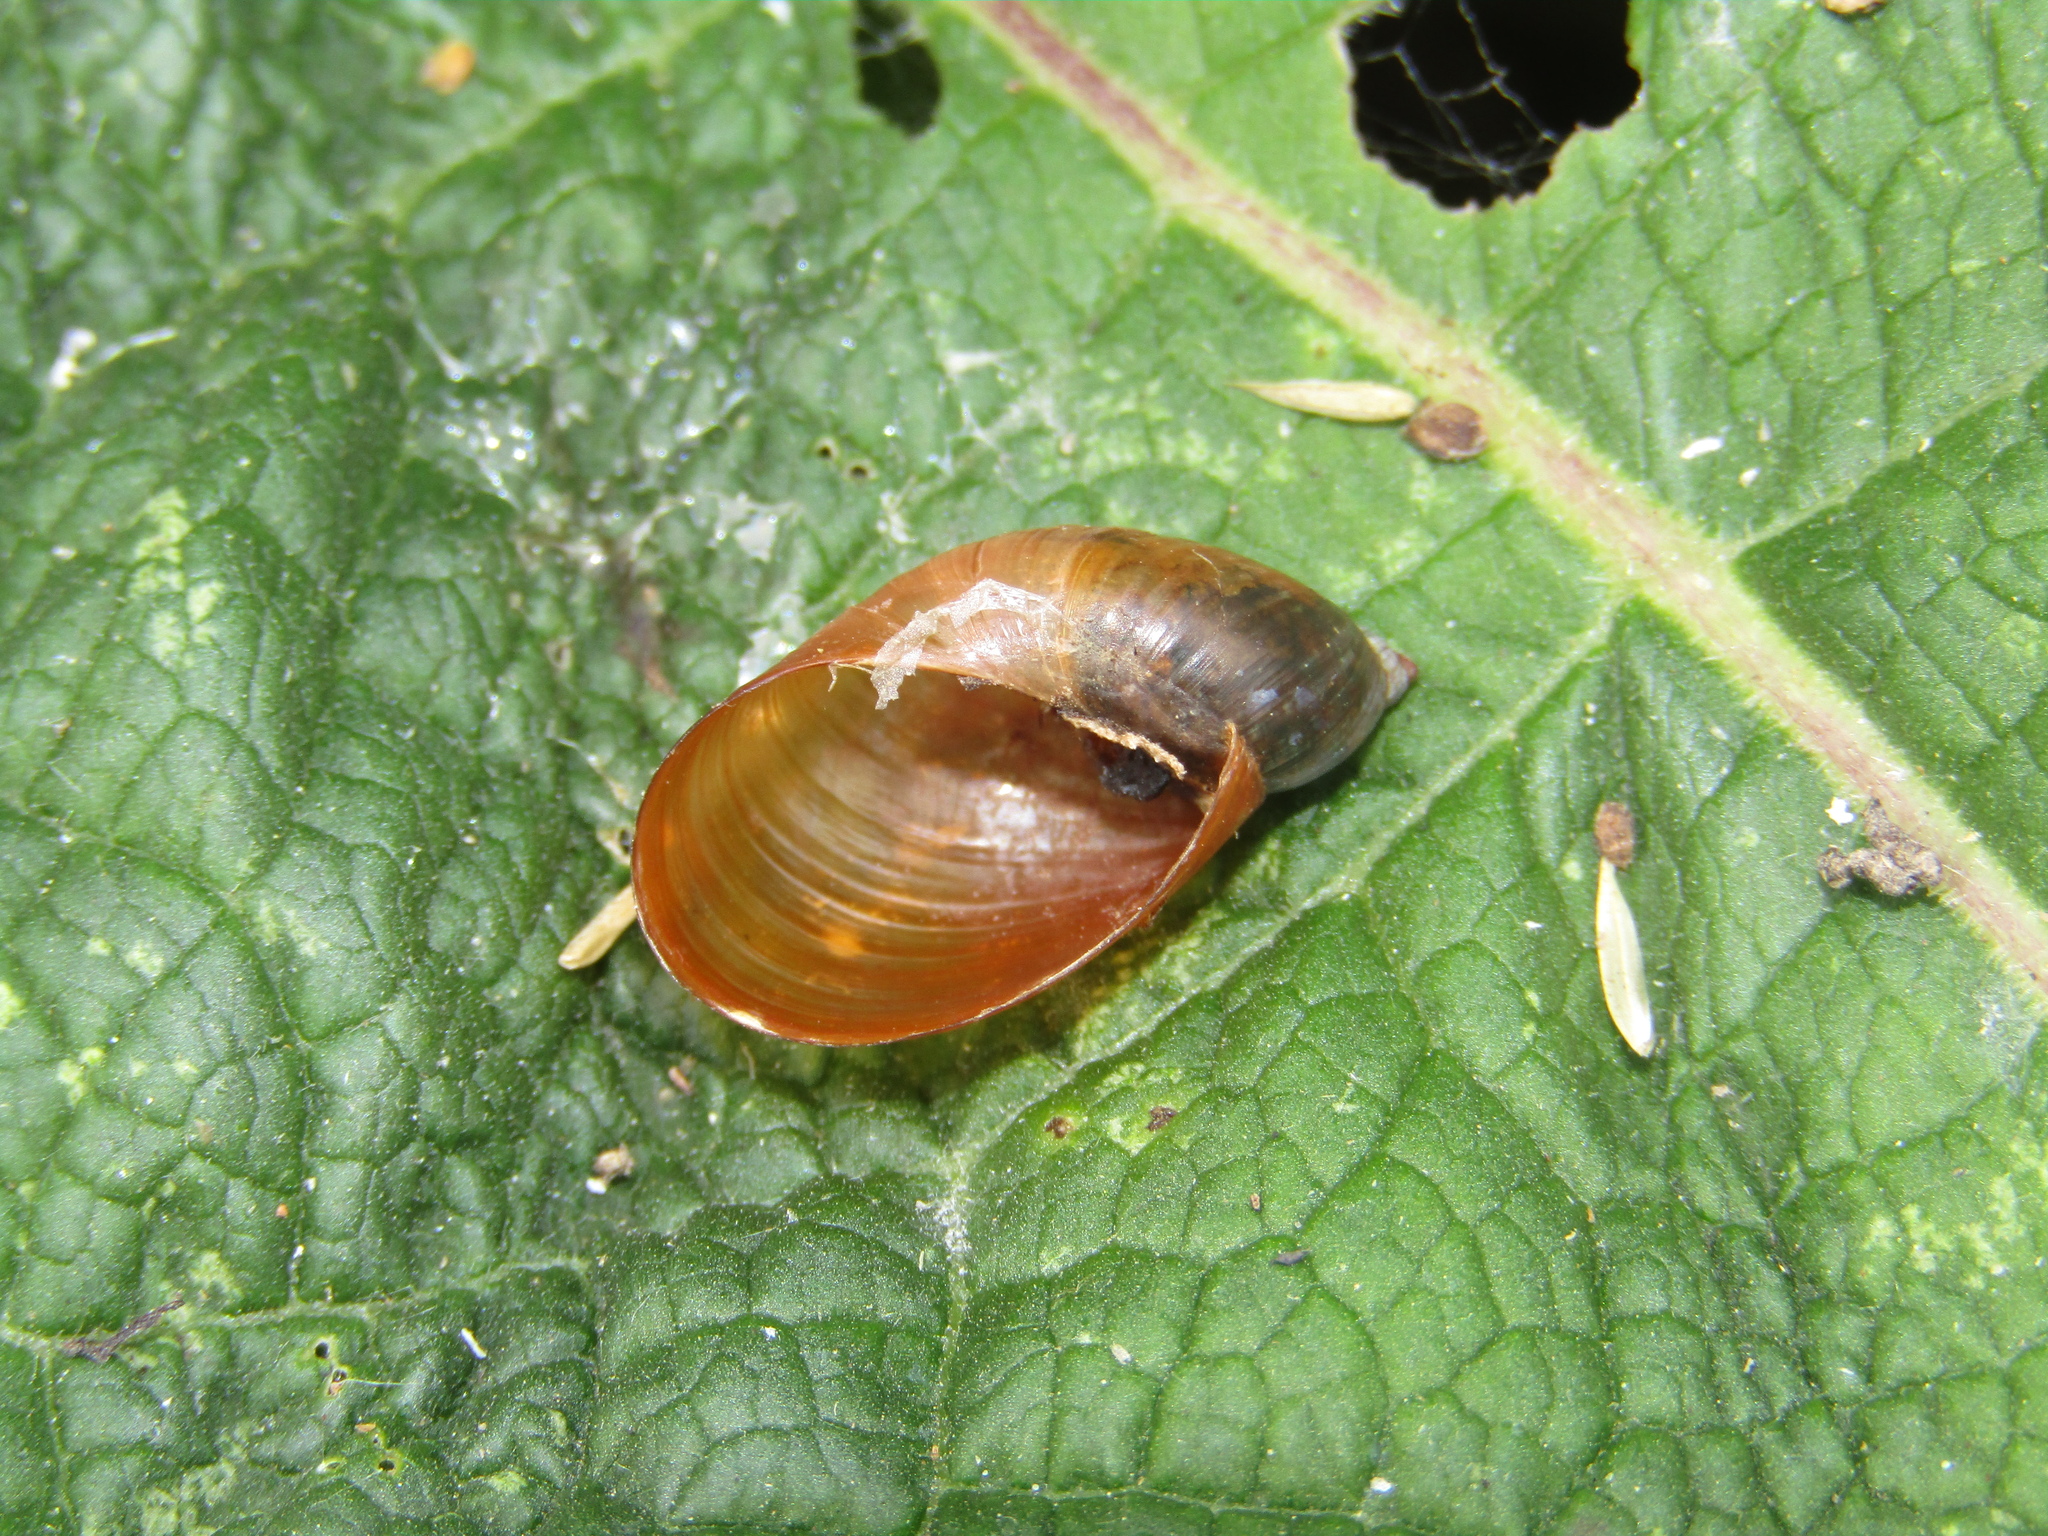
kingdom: Animalia
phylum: Mollusca
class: Gastropoda
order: Stylommatophora
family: Succineidae
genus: Succinea
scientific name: Succinea putris
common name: European ambersnail
